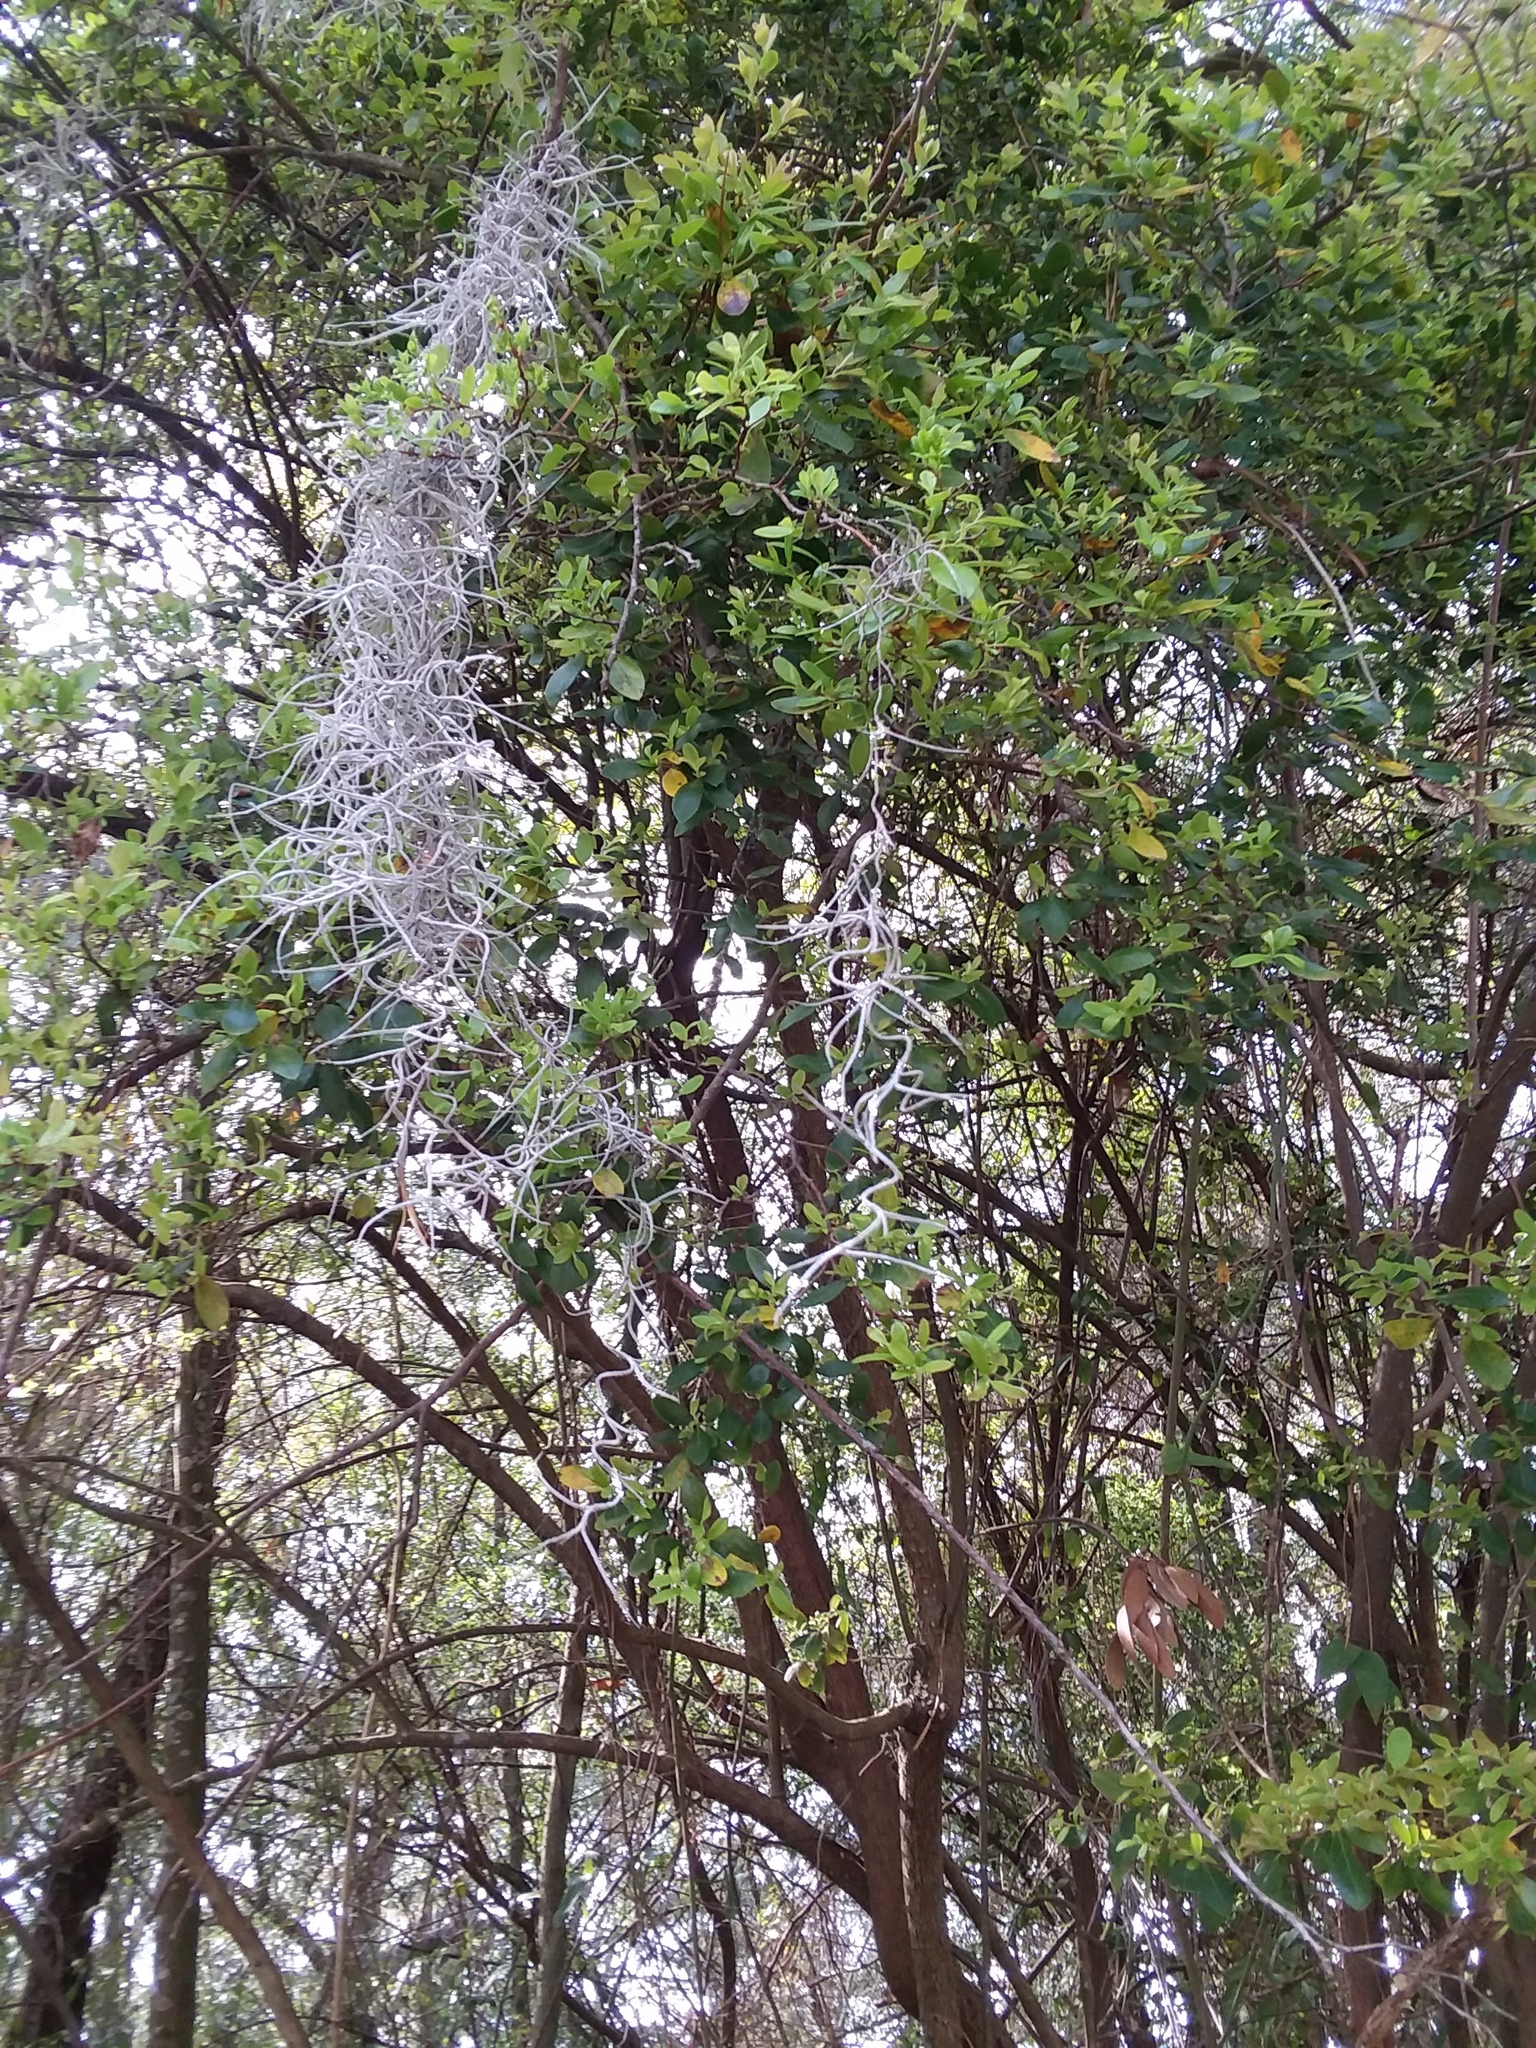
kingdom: Plantae
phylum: Tracheophyta
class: Liliopsida
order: Poales
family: Bromeliaceae
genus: Tillandsia
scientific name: Tillandsia usneoides
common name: Spanish moss
